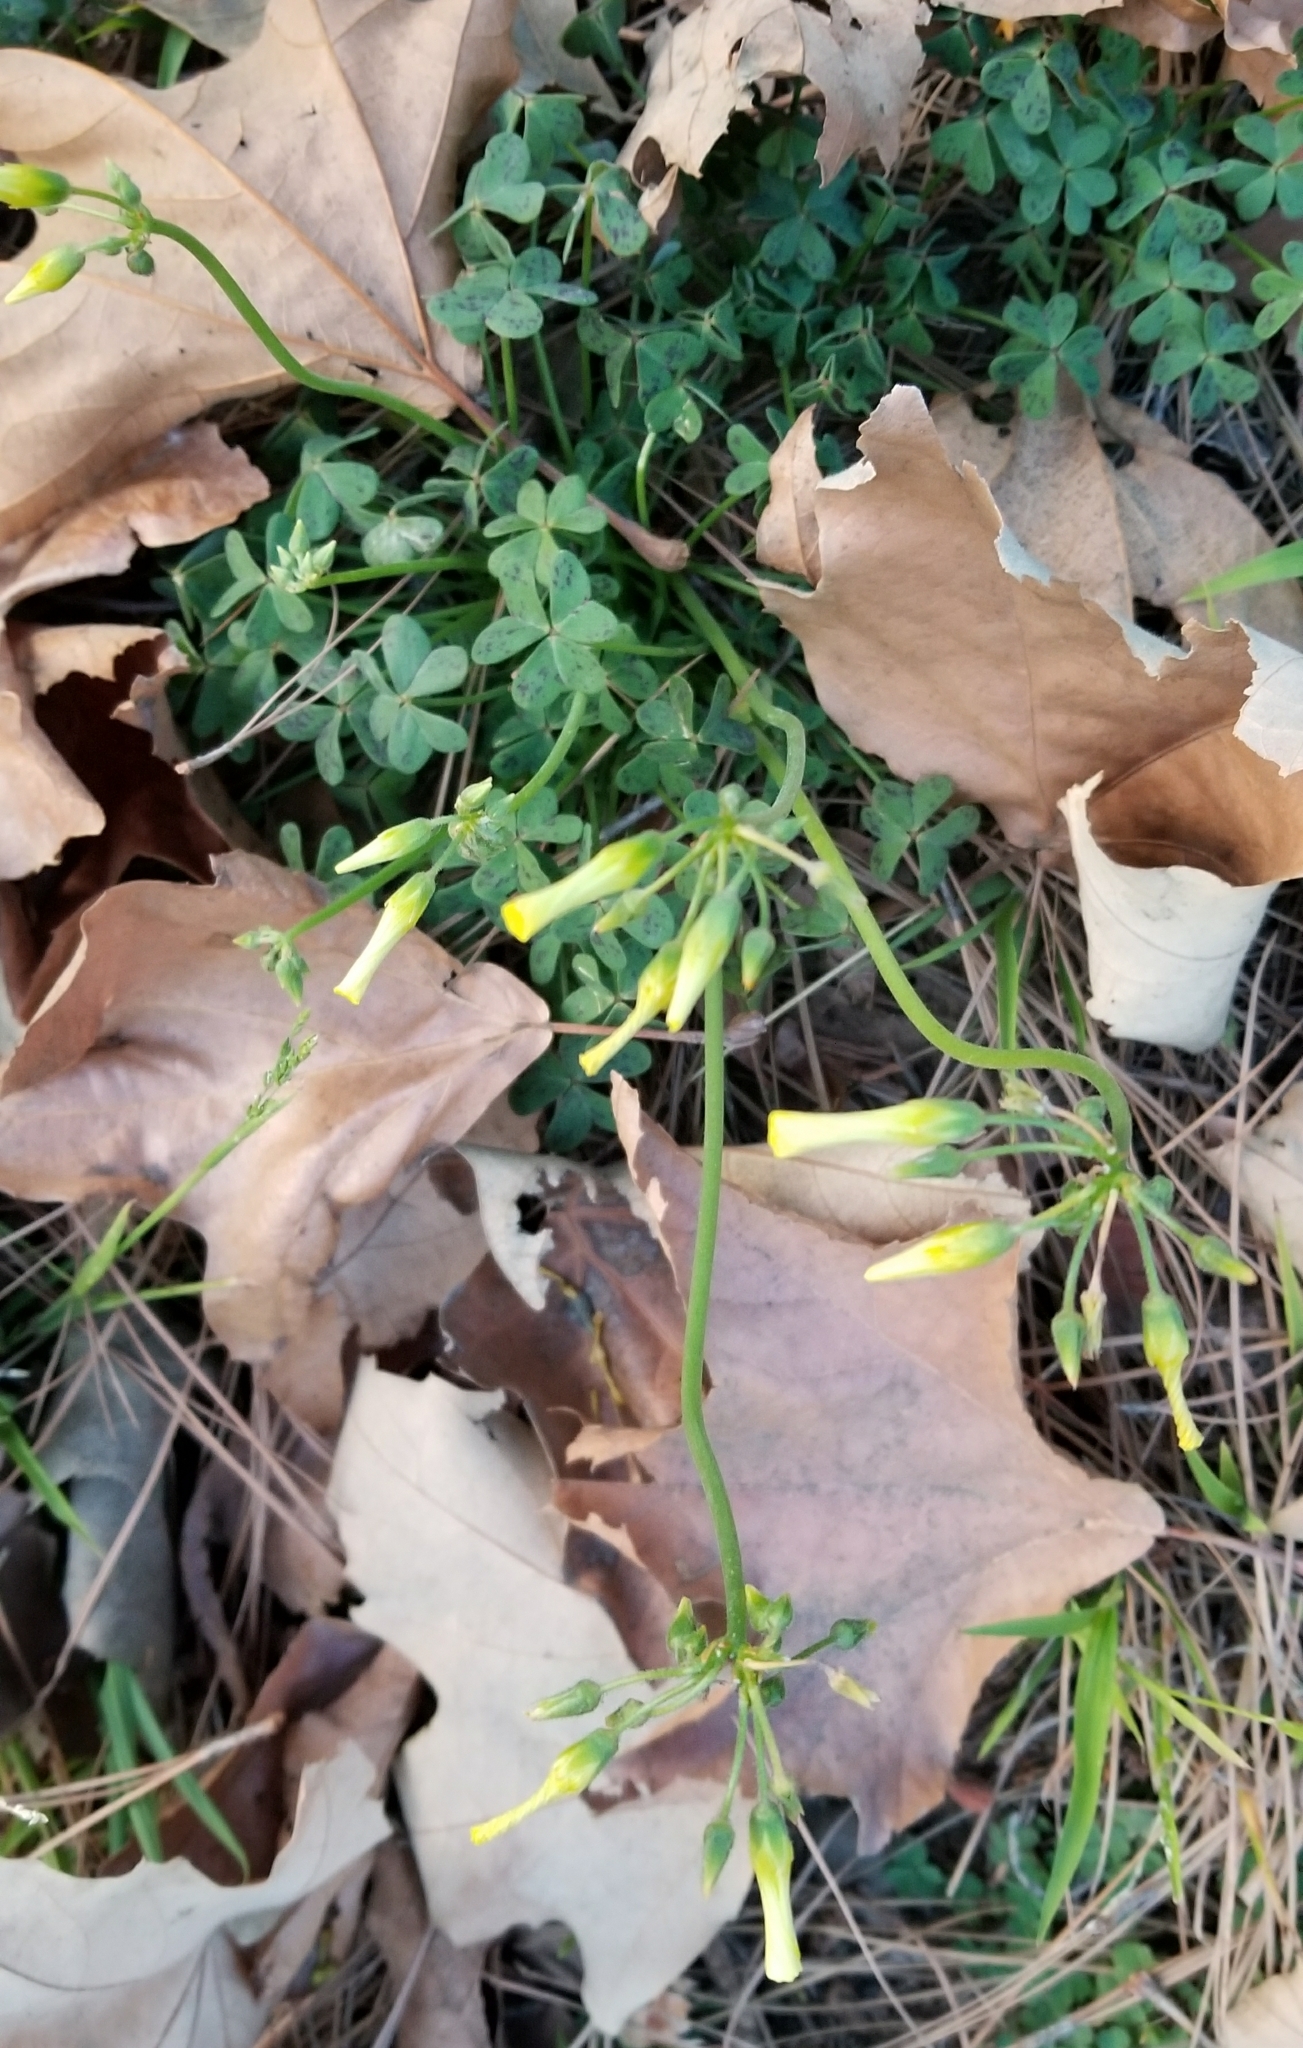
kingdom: Plantae
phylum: Tracheophyta
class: Magnoliopsida
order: Oxalidales
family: Oxalidaceae
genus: Oxalis
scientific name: Oxalis pes-caprae
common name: Bermuda-buttercup
